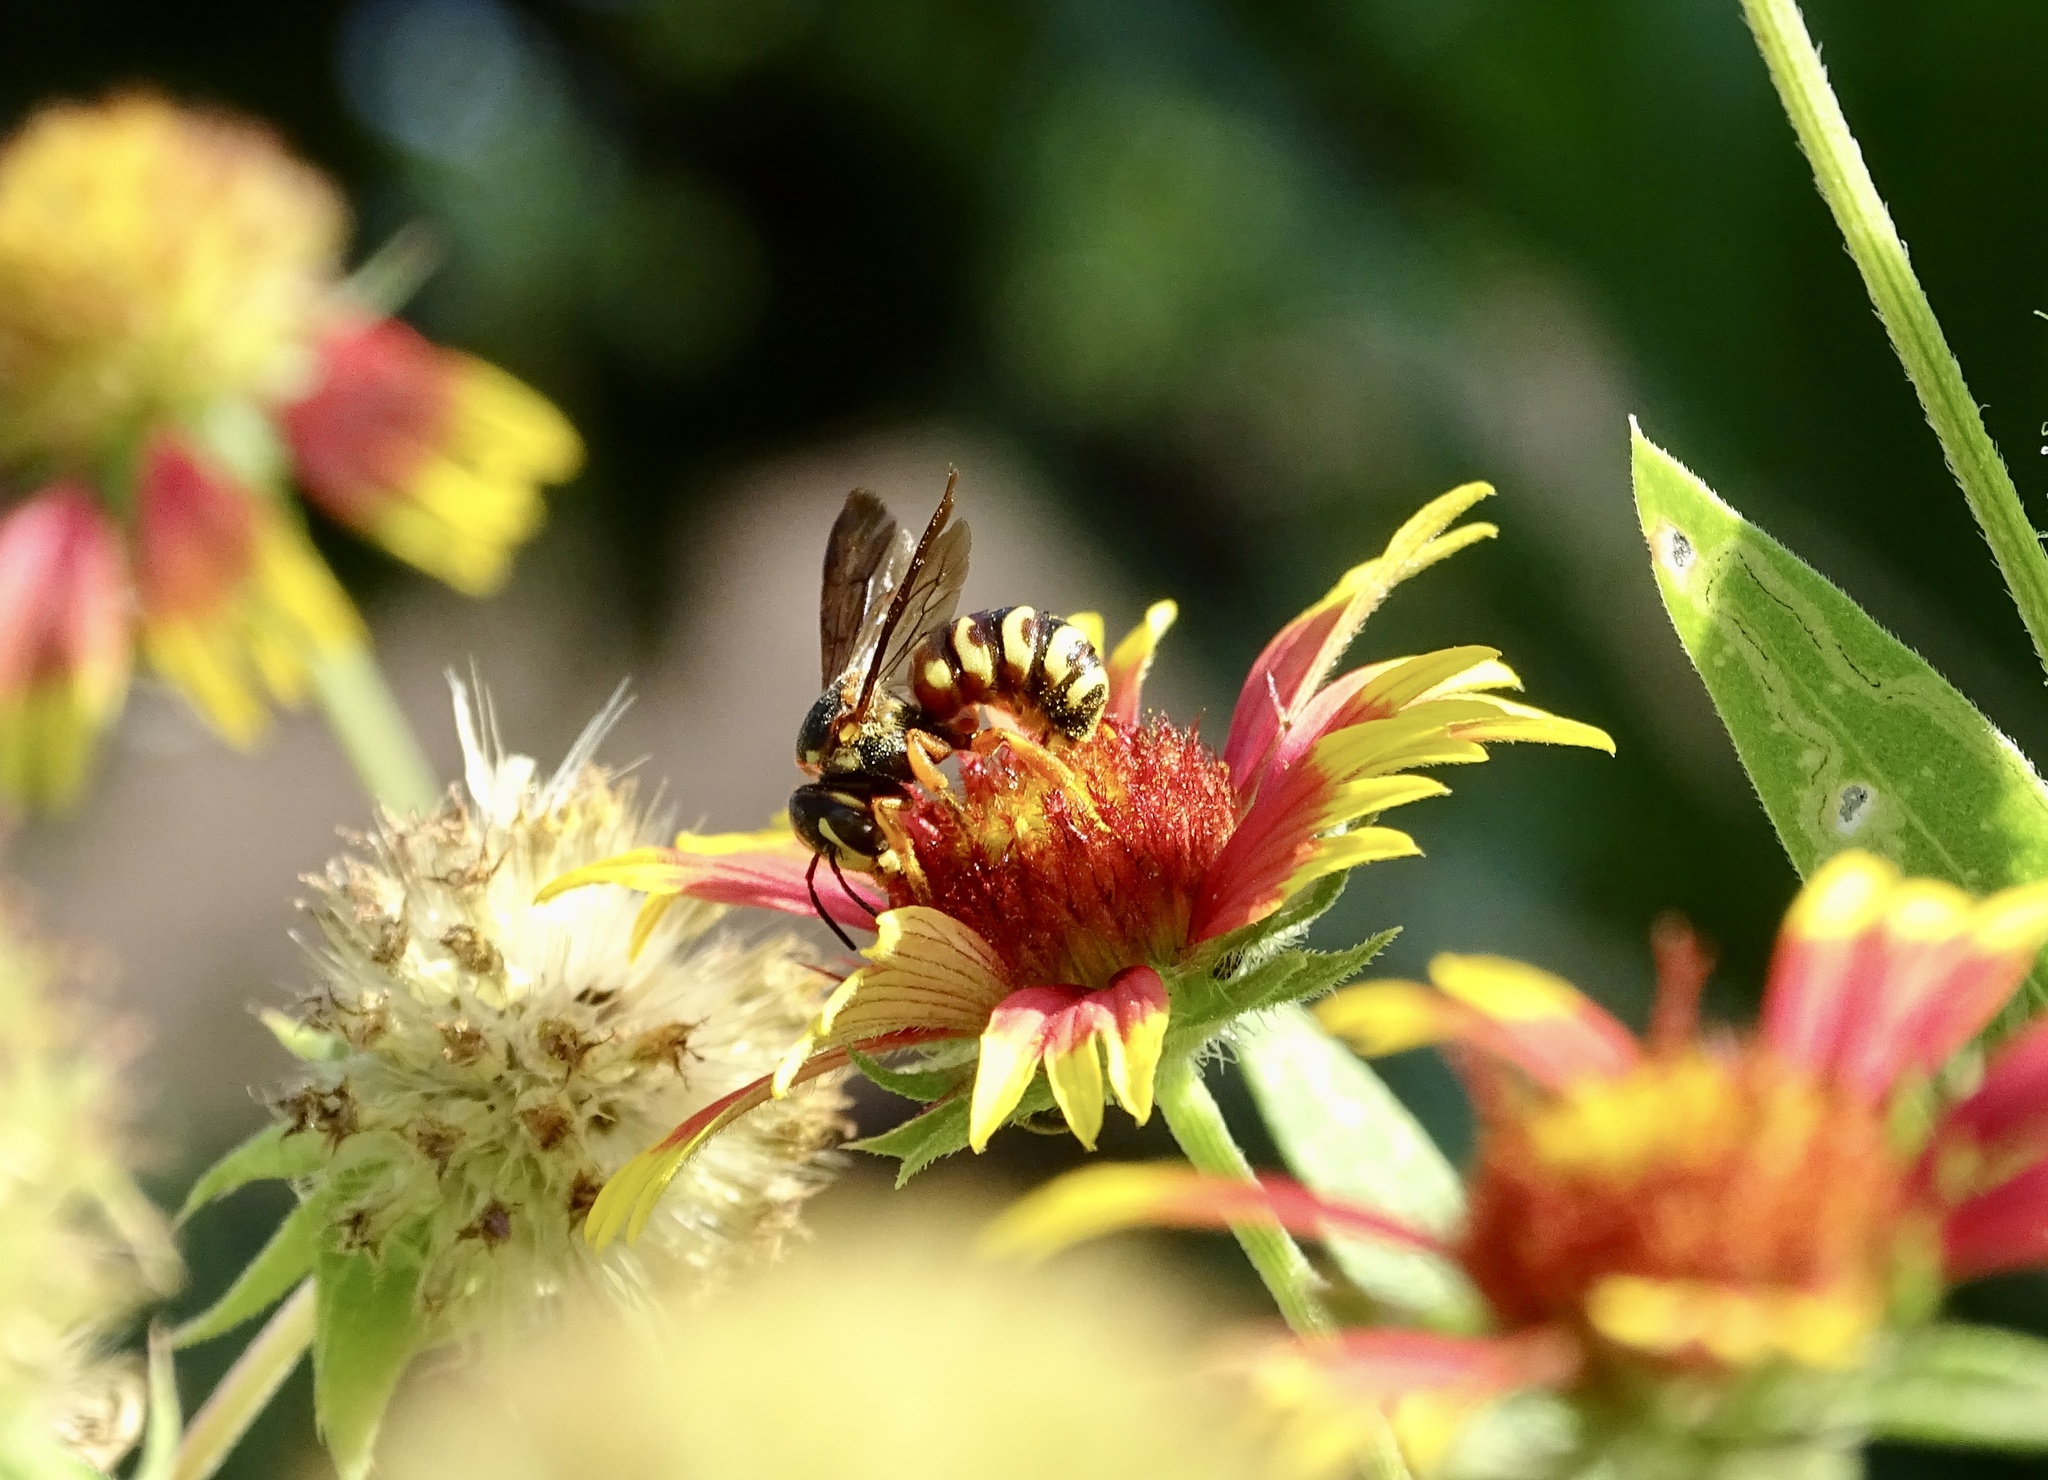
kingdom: Animalia
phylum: Arthropoda
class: Insecta
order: Hymenoptera
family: Megachilidae
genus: Dianthidium
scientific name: Dianthidium curvatum
